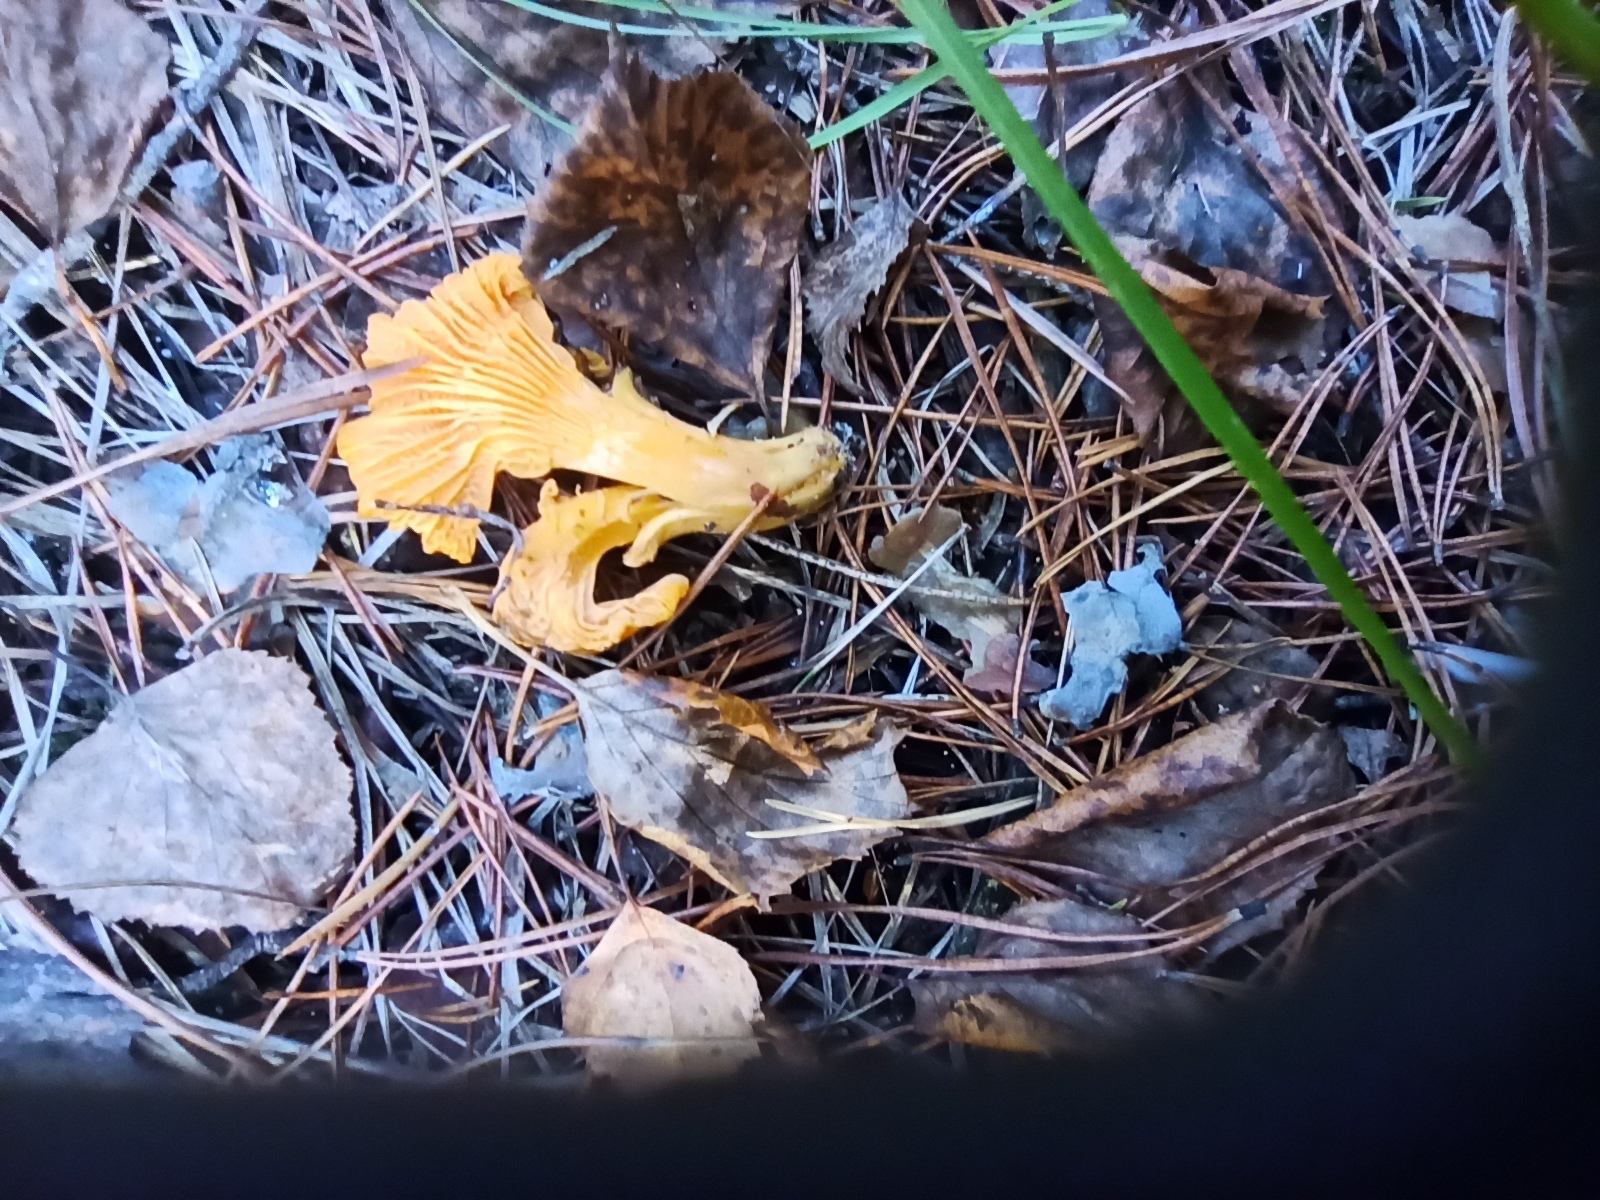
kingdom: Fungi
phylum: Basidiomycota
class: Agaricomycetes
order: Cantharellales
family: Hydnaceae
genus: Cantharellus
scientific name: Cantharellus cibarius
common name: Chanterelle
